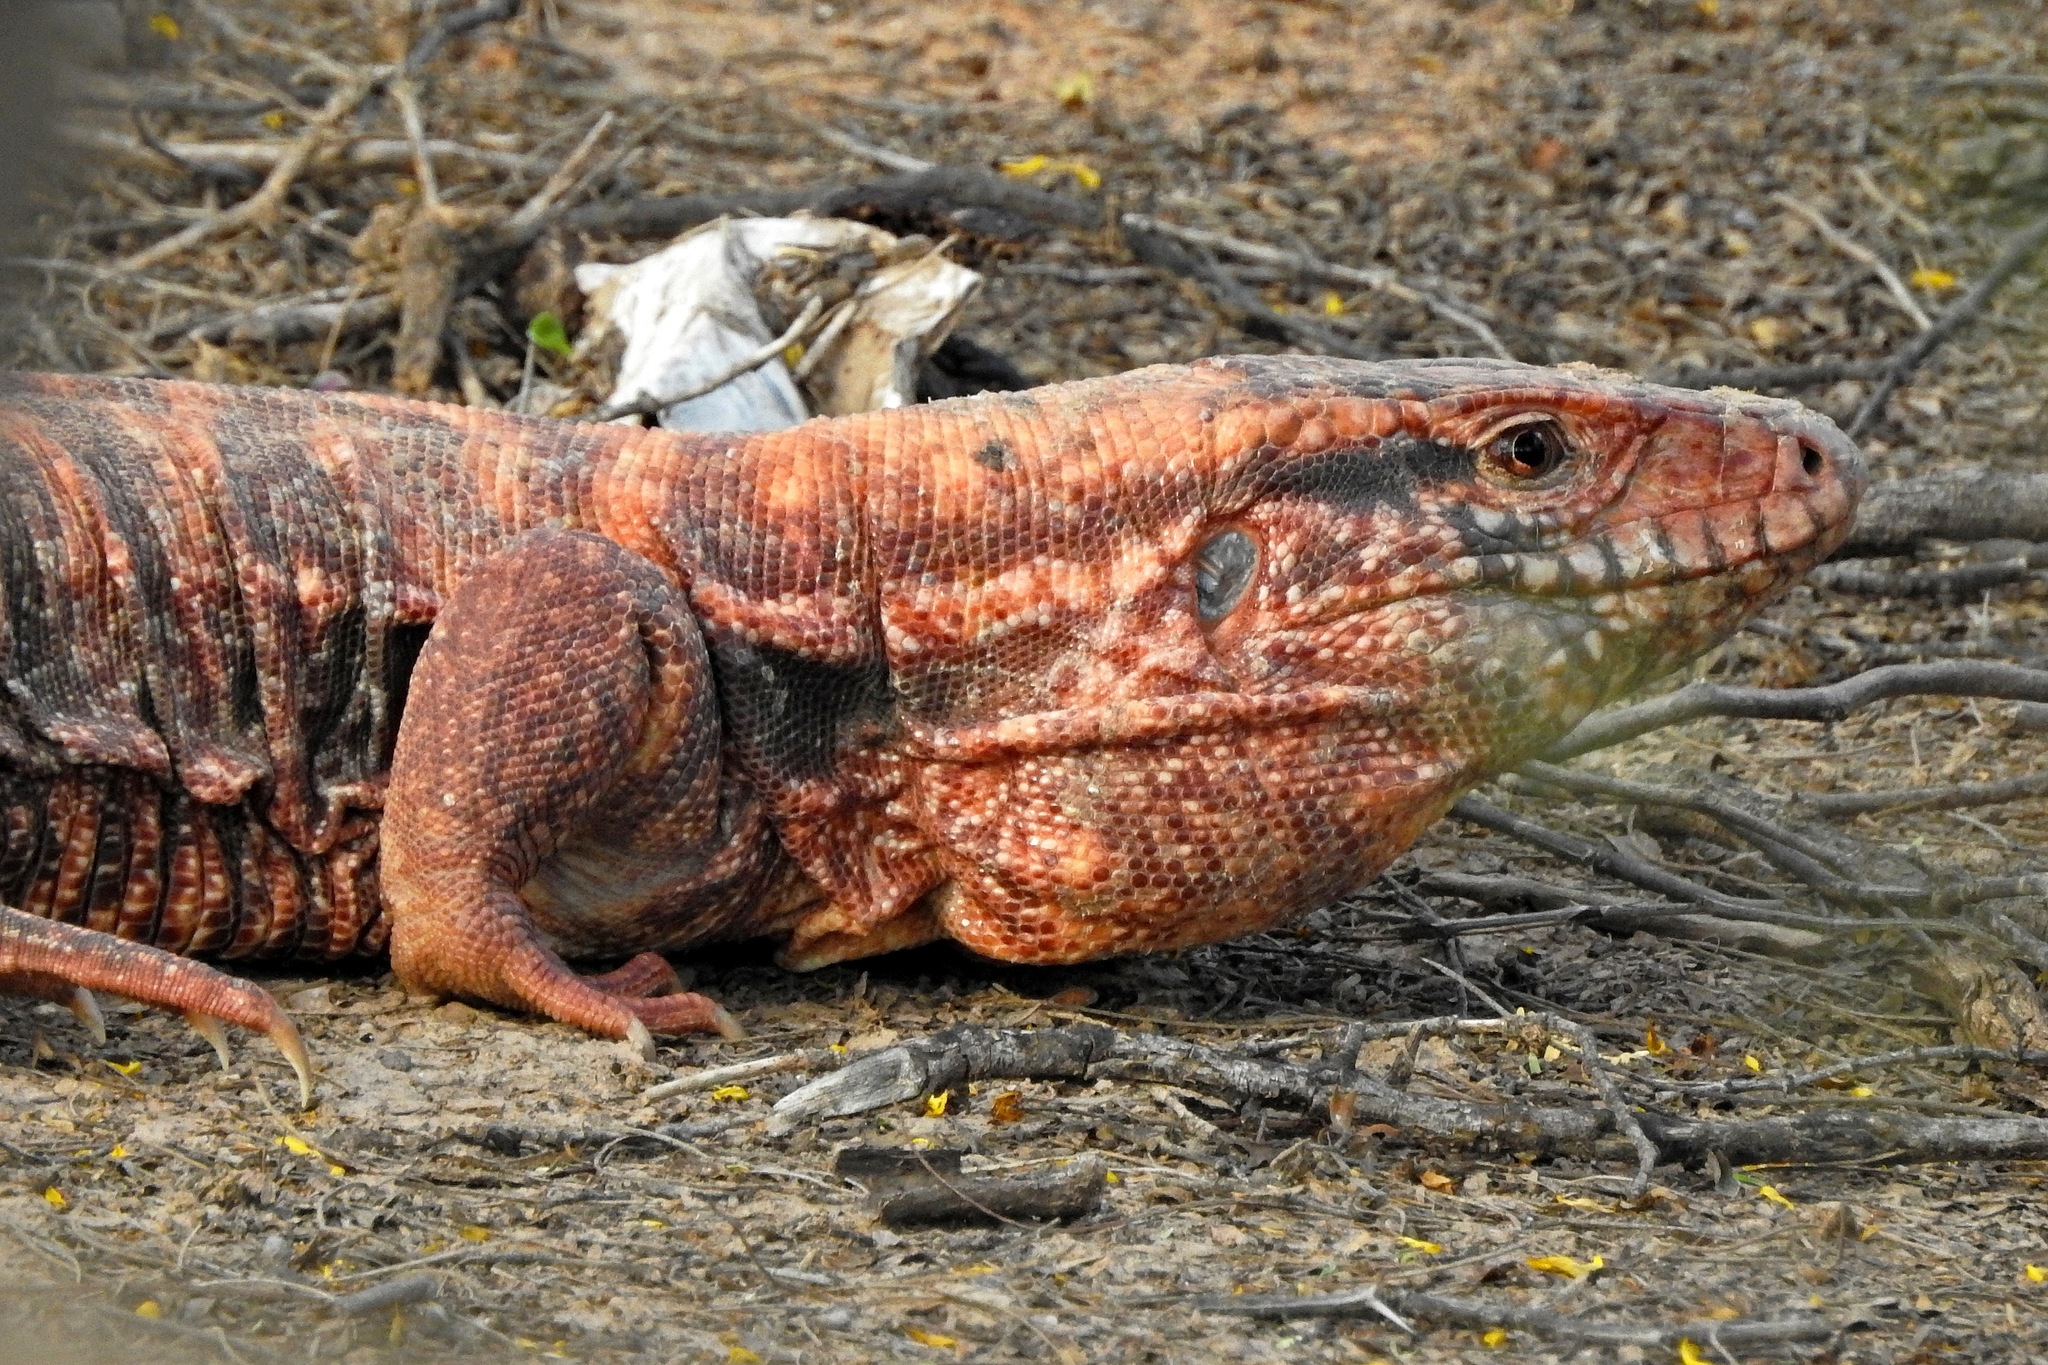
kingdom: Animalia
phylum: Chordata
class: Squamata
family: Teiidae
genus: Salvator
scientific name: Salvator rufescens
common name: Red tegu
